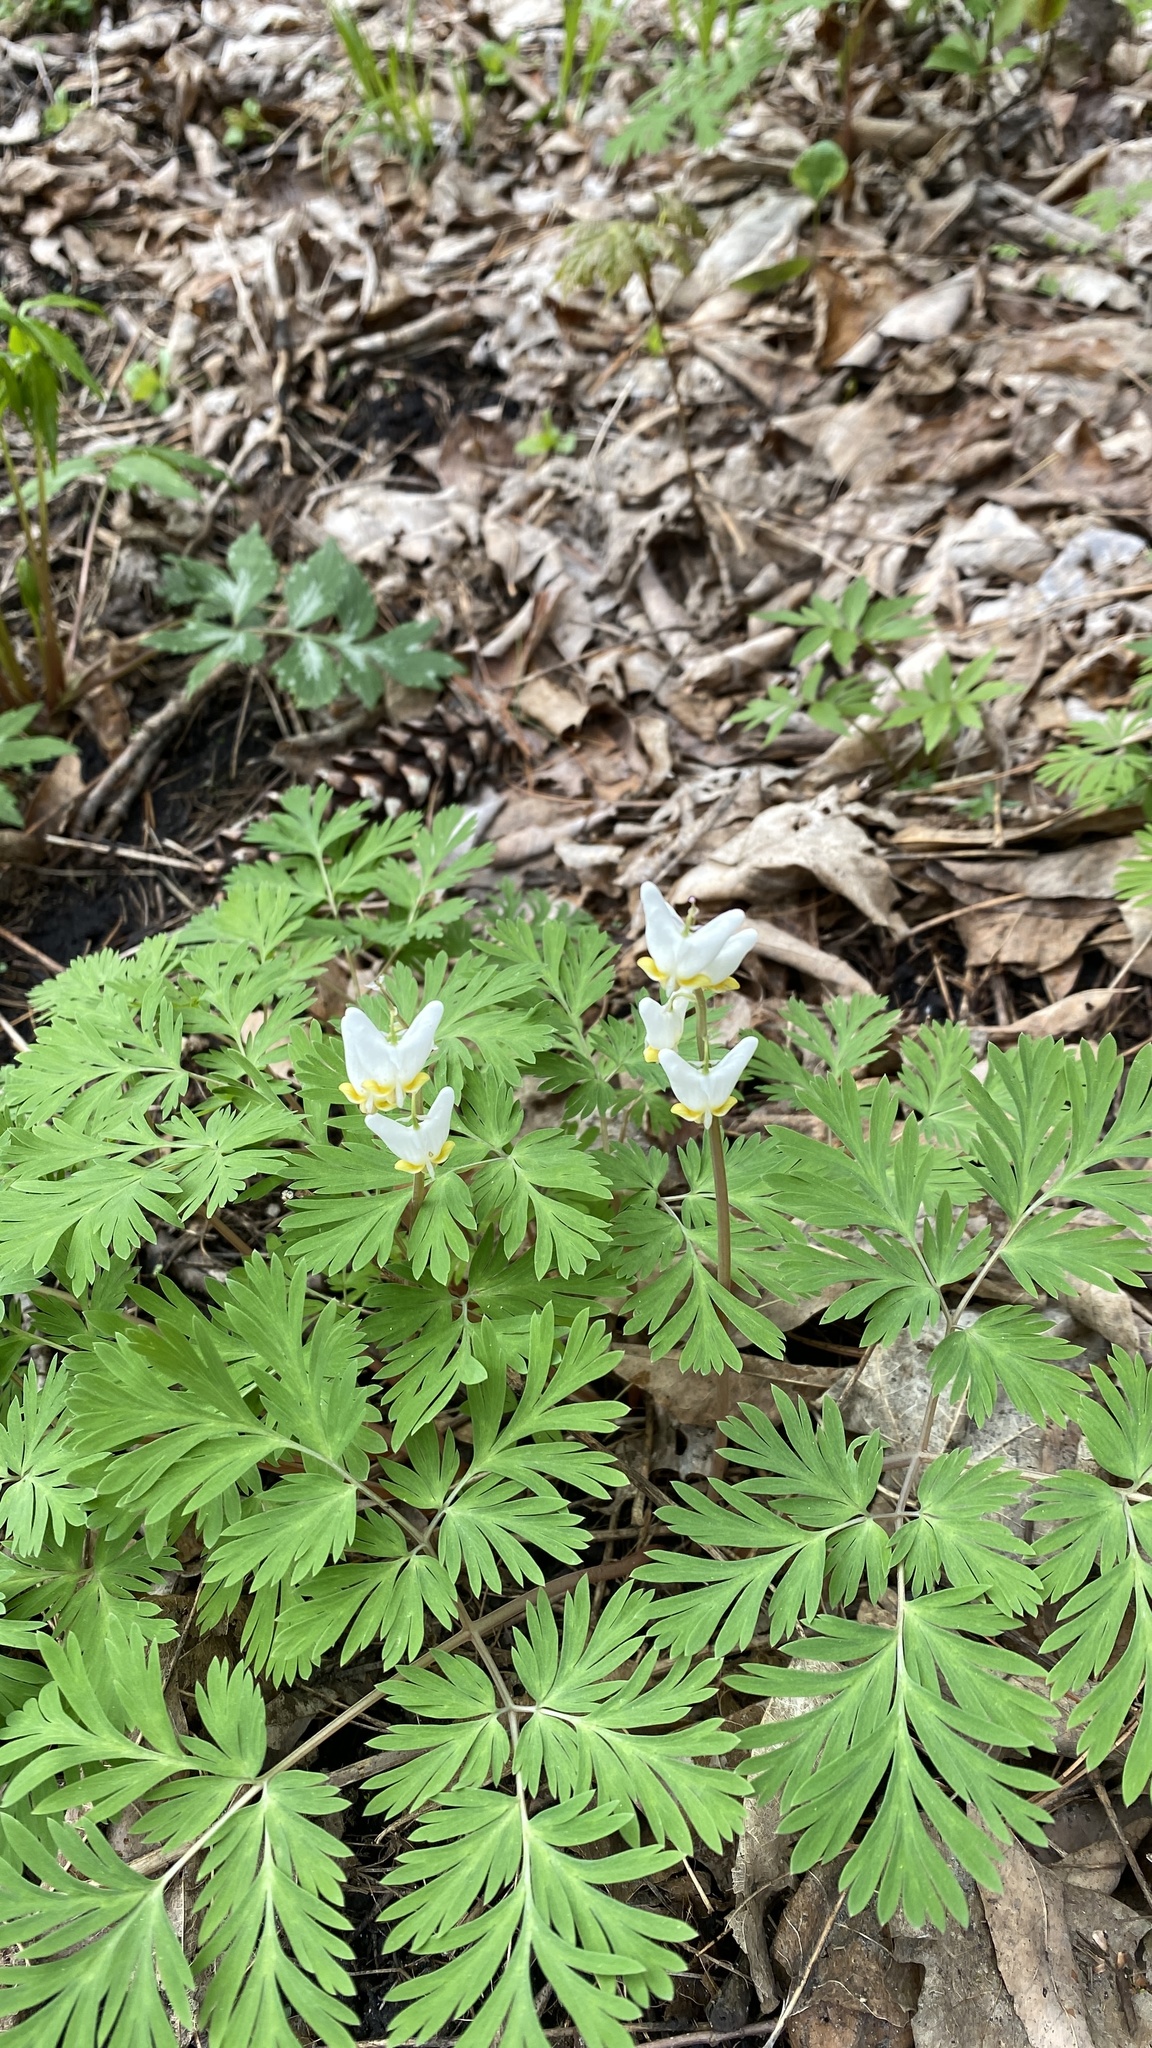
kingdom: Plantae
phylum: Tracheophyta
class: Magnoliopsida
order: Ranunculales
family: Papaveraceae
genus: Dicentra
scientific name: Dicentra cucullaria
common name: Dutchman's breeches
